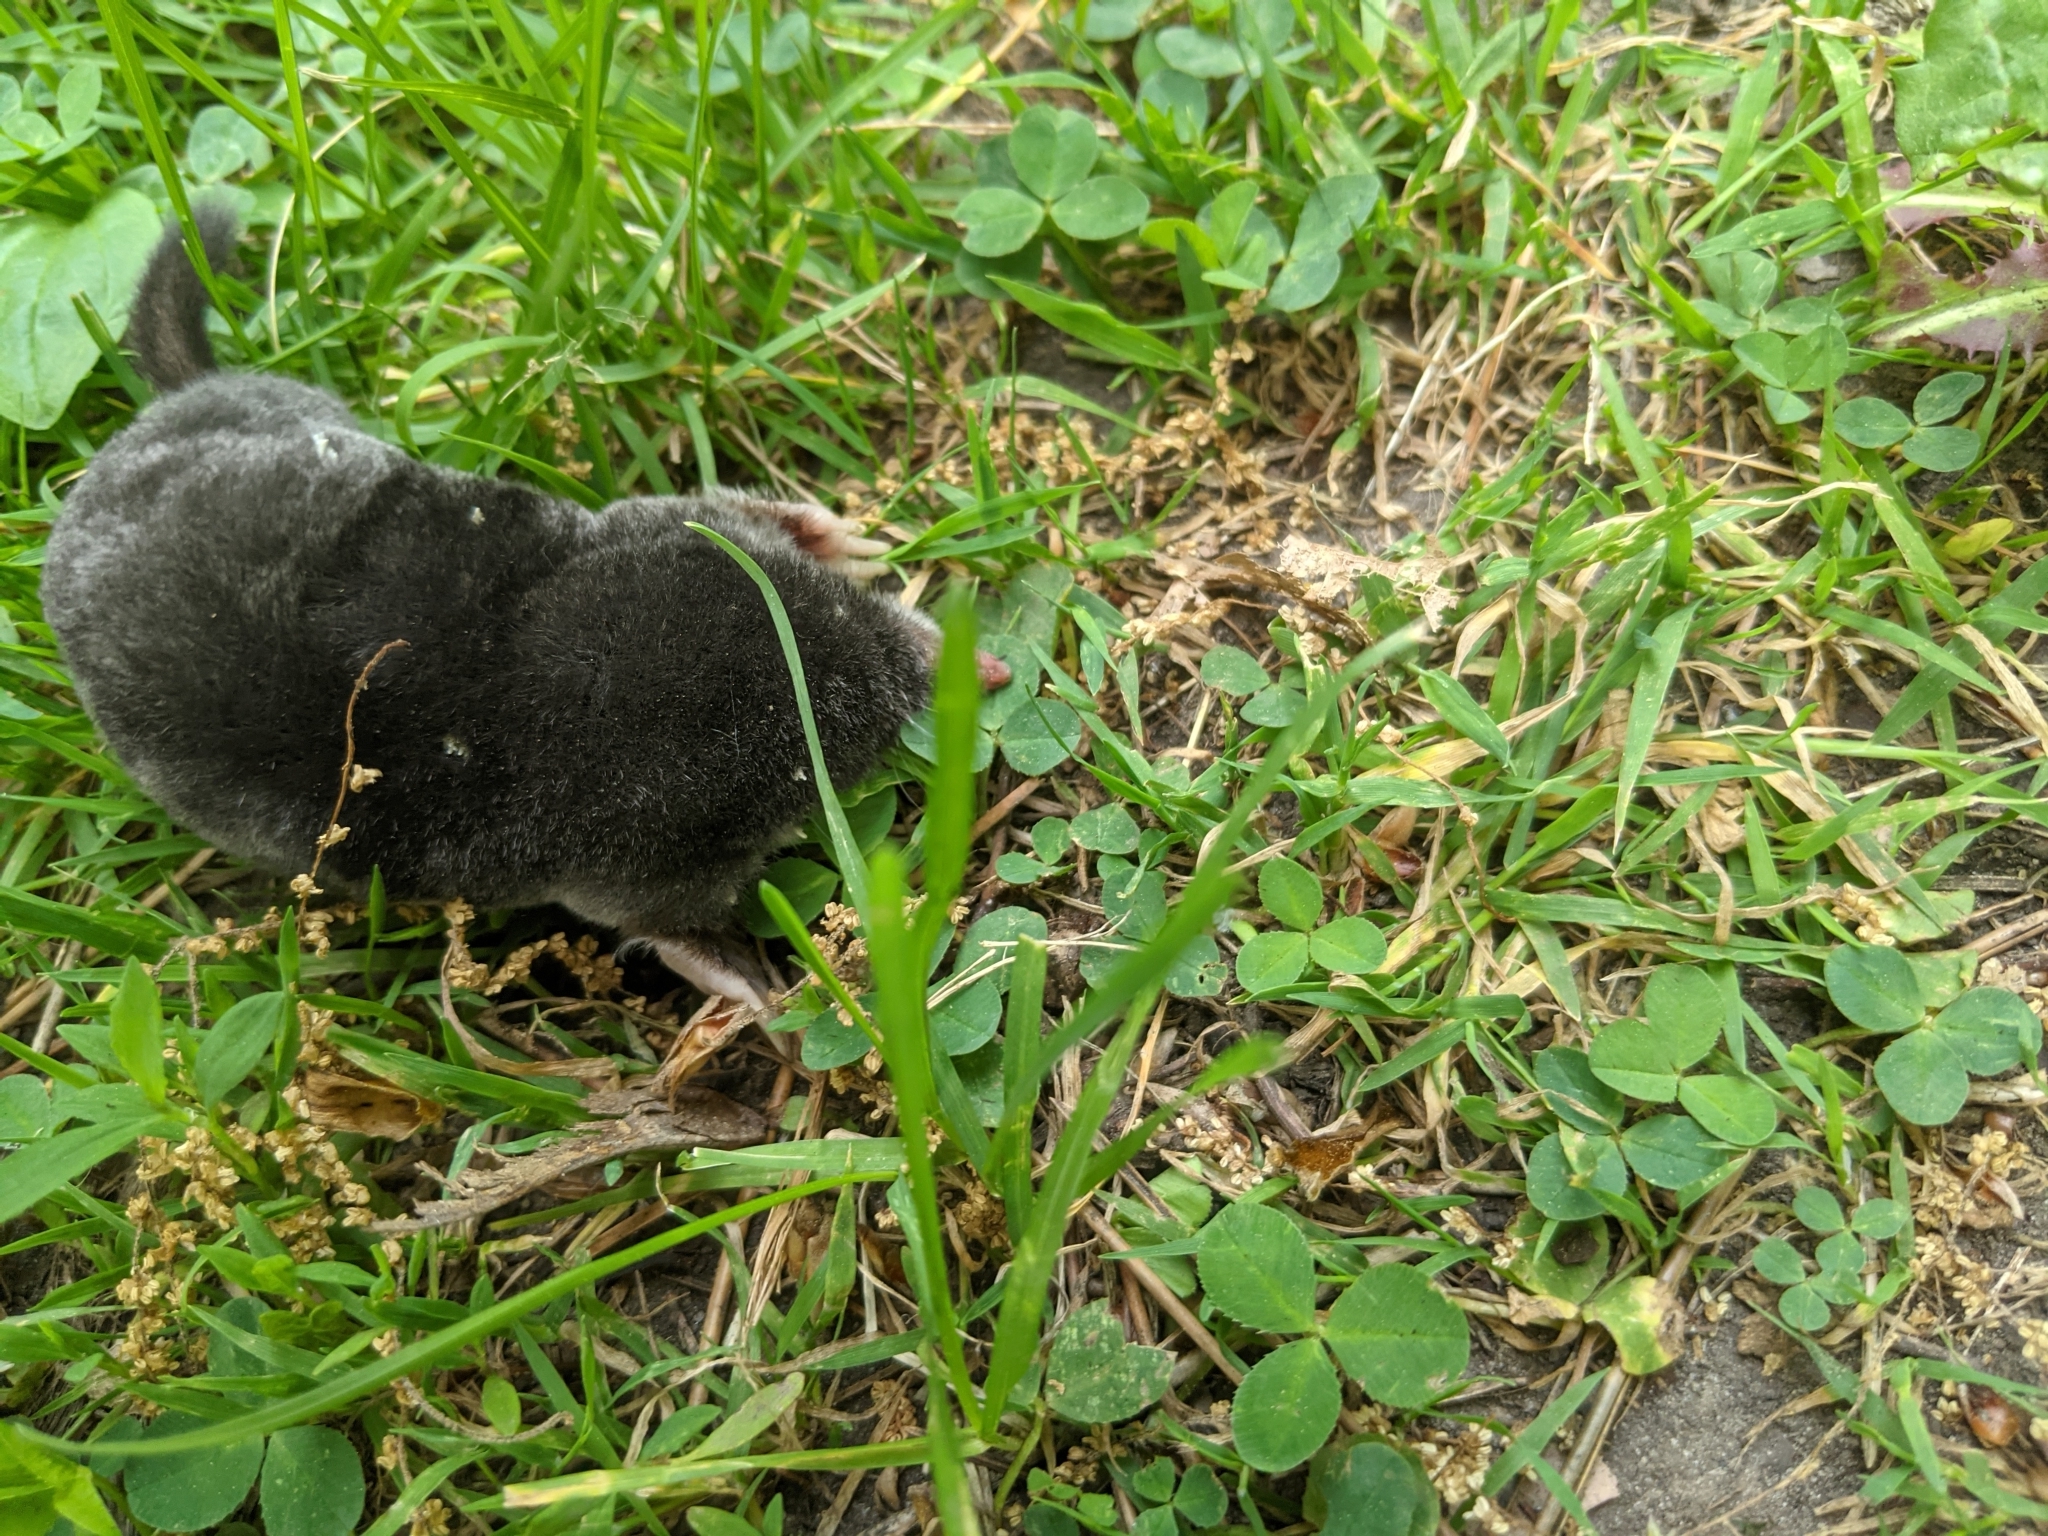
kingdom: Animalia
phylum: Chordata
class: Mammalia
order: Soricomorpha
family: Talpidae
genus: Parascalops
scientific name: Parascalops breweri
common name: Hairy-tailed mole
